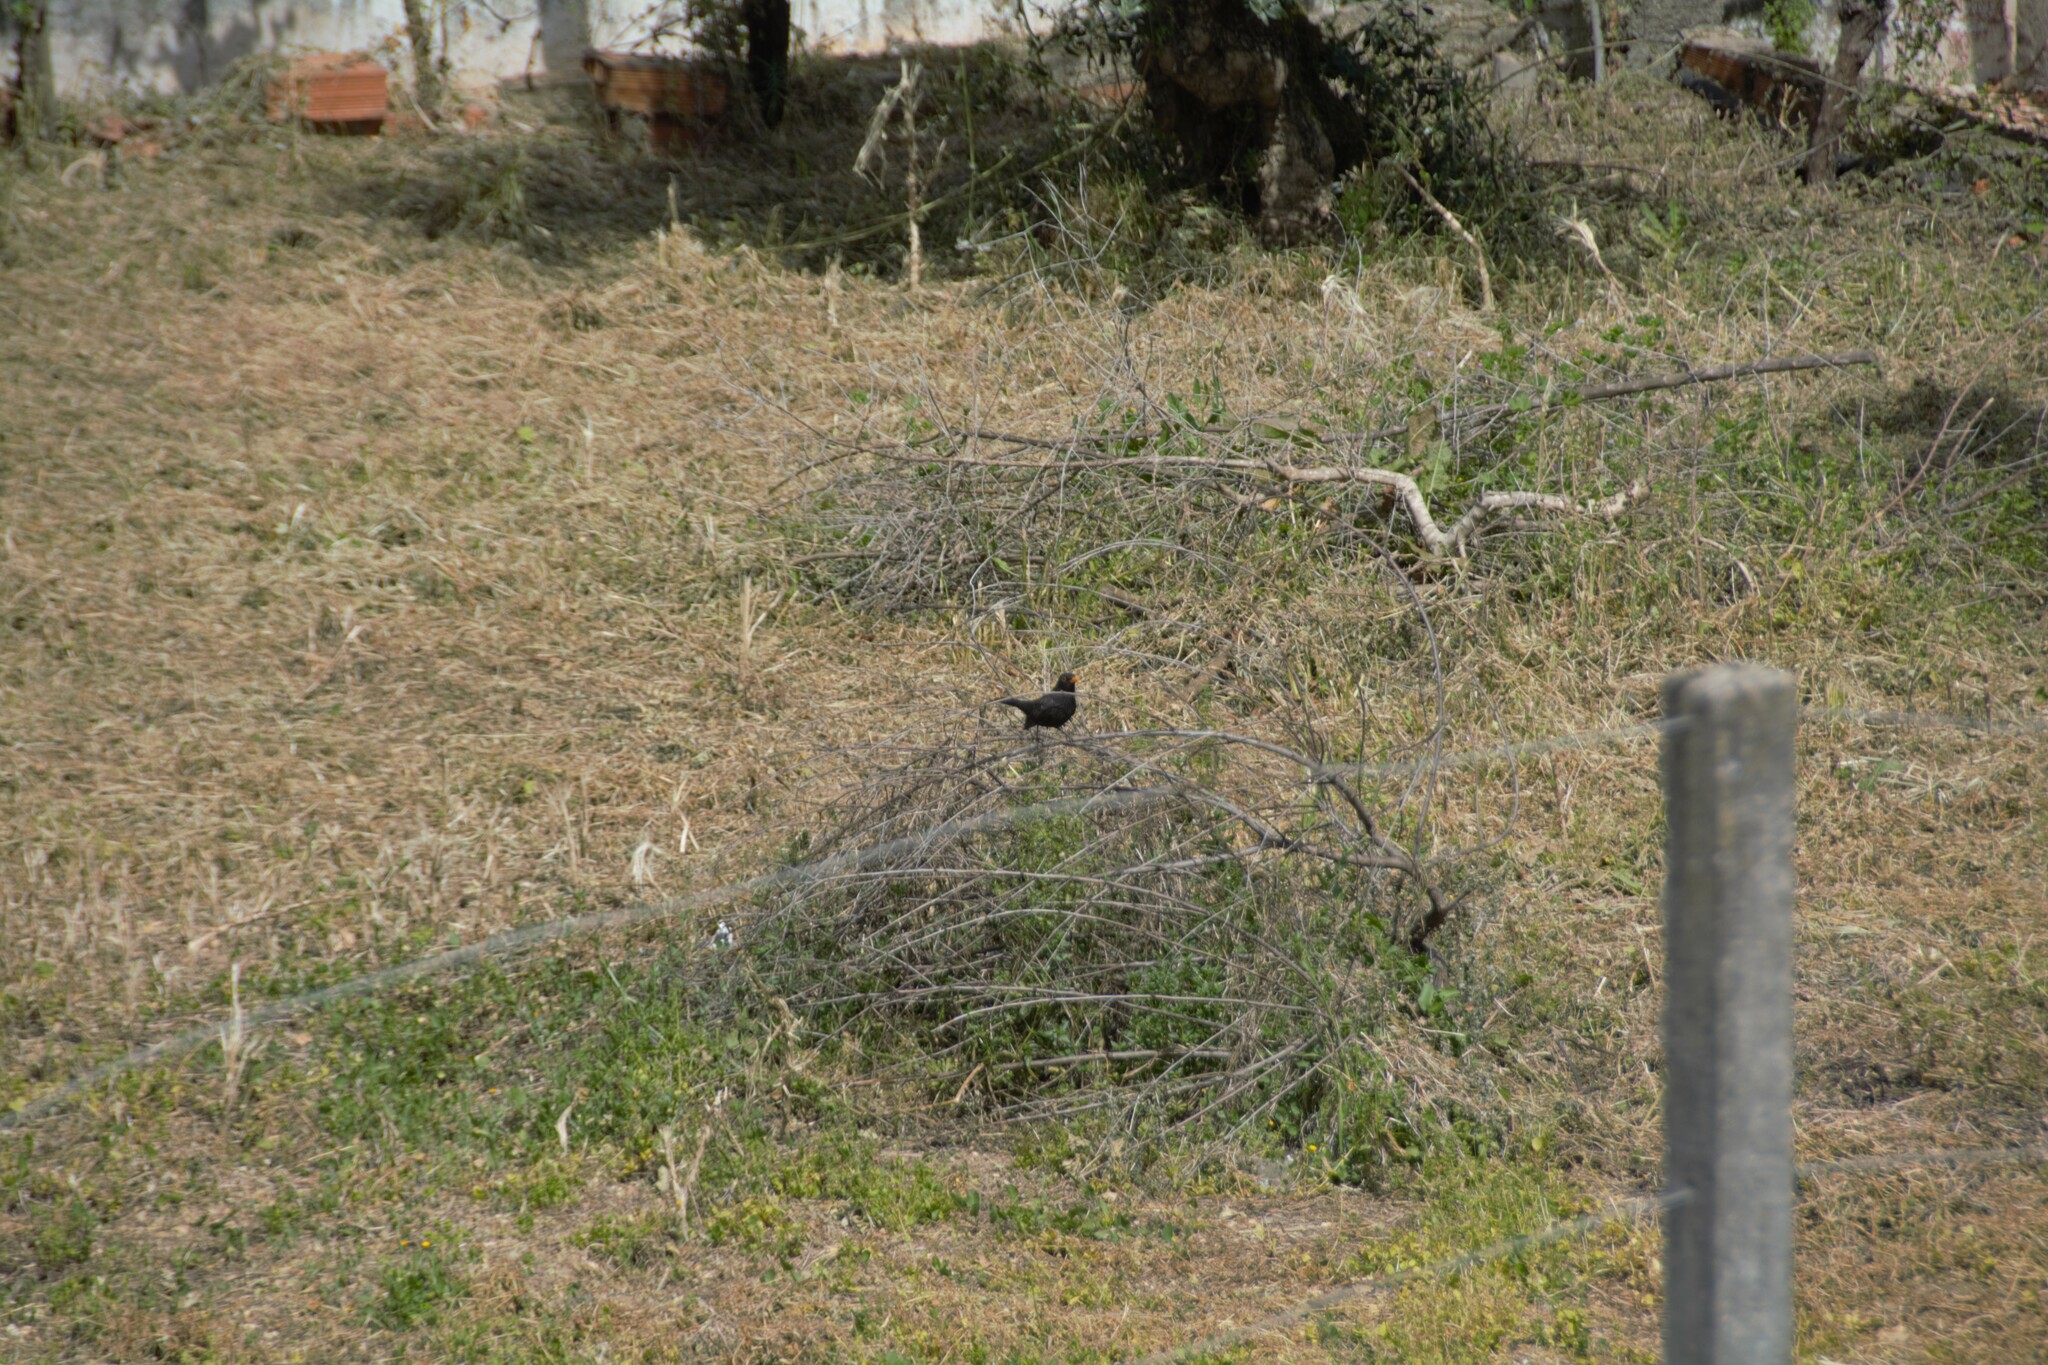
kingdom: Animalia
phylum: Chordata
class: Aves
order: Passeriformes
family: Turdidae
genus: Turdus
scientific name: Turdus merula
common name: Common blackbird
